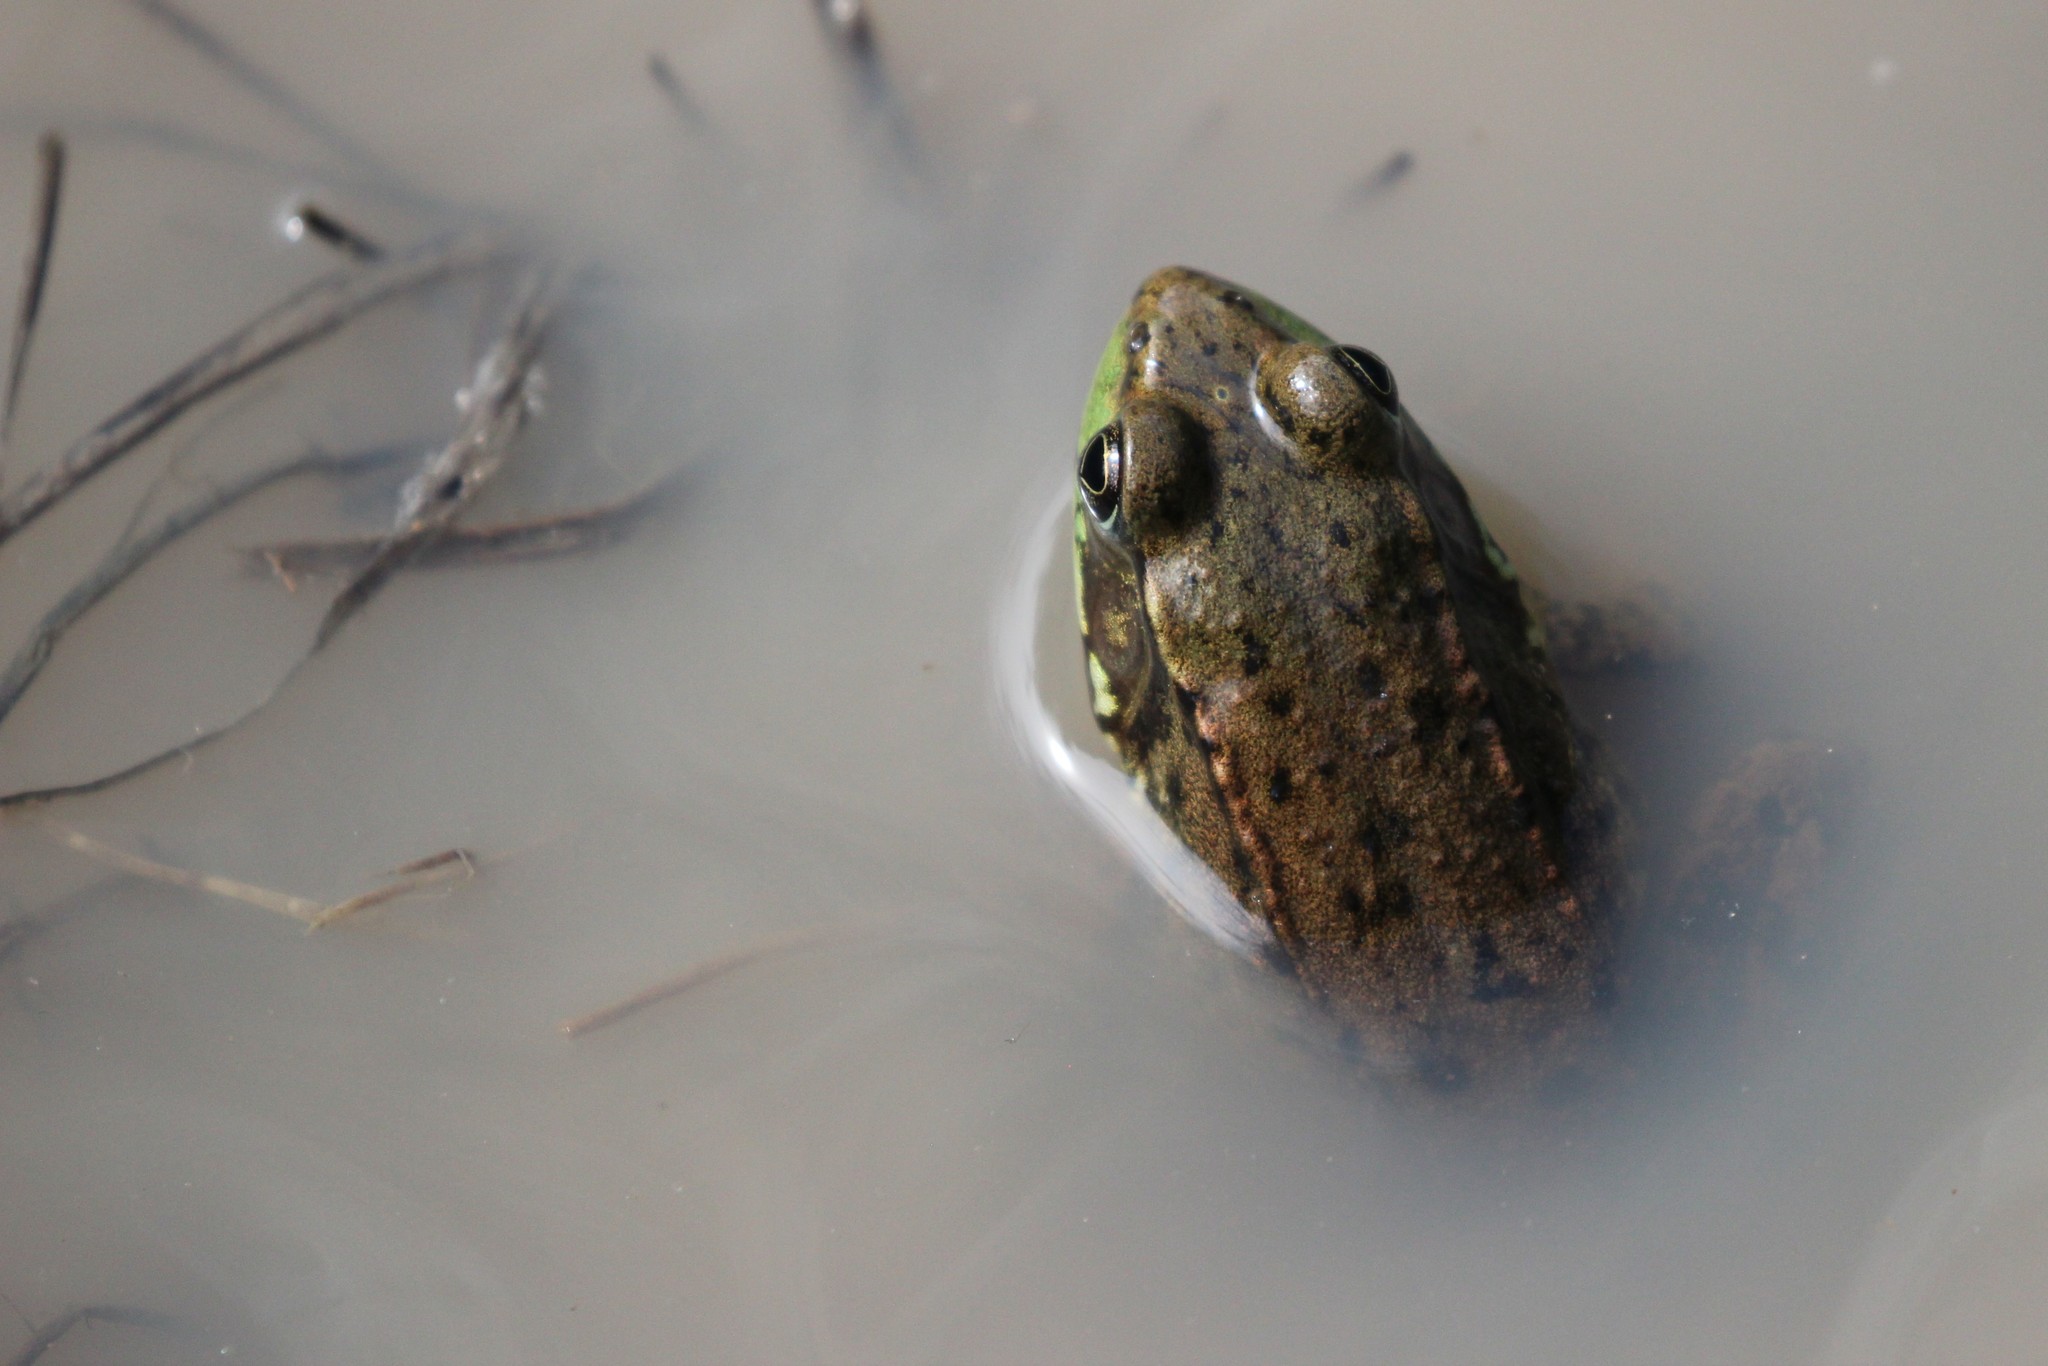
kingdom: Animalia
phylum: Chordata
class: Amphibia
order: Anura
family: Ranidae
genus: Lithobates
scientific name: Lithobates clamitans
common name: Green frog
